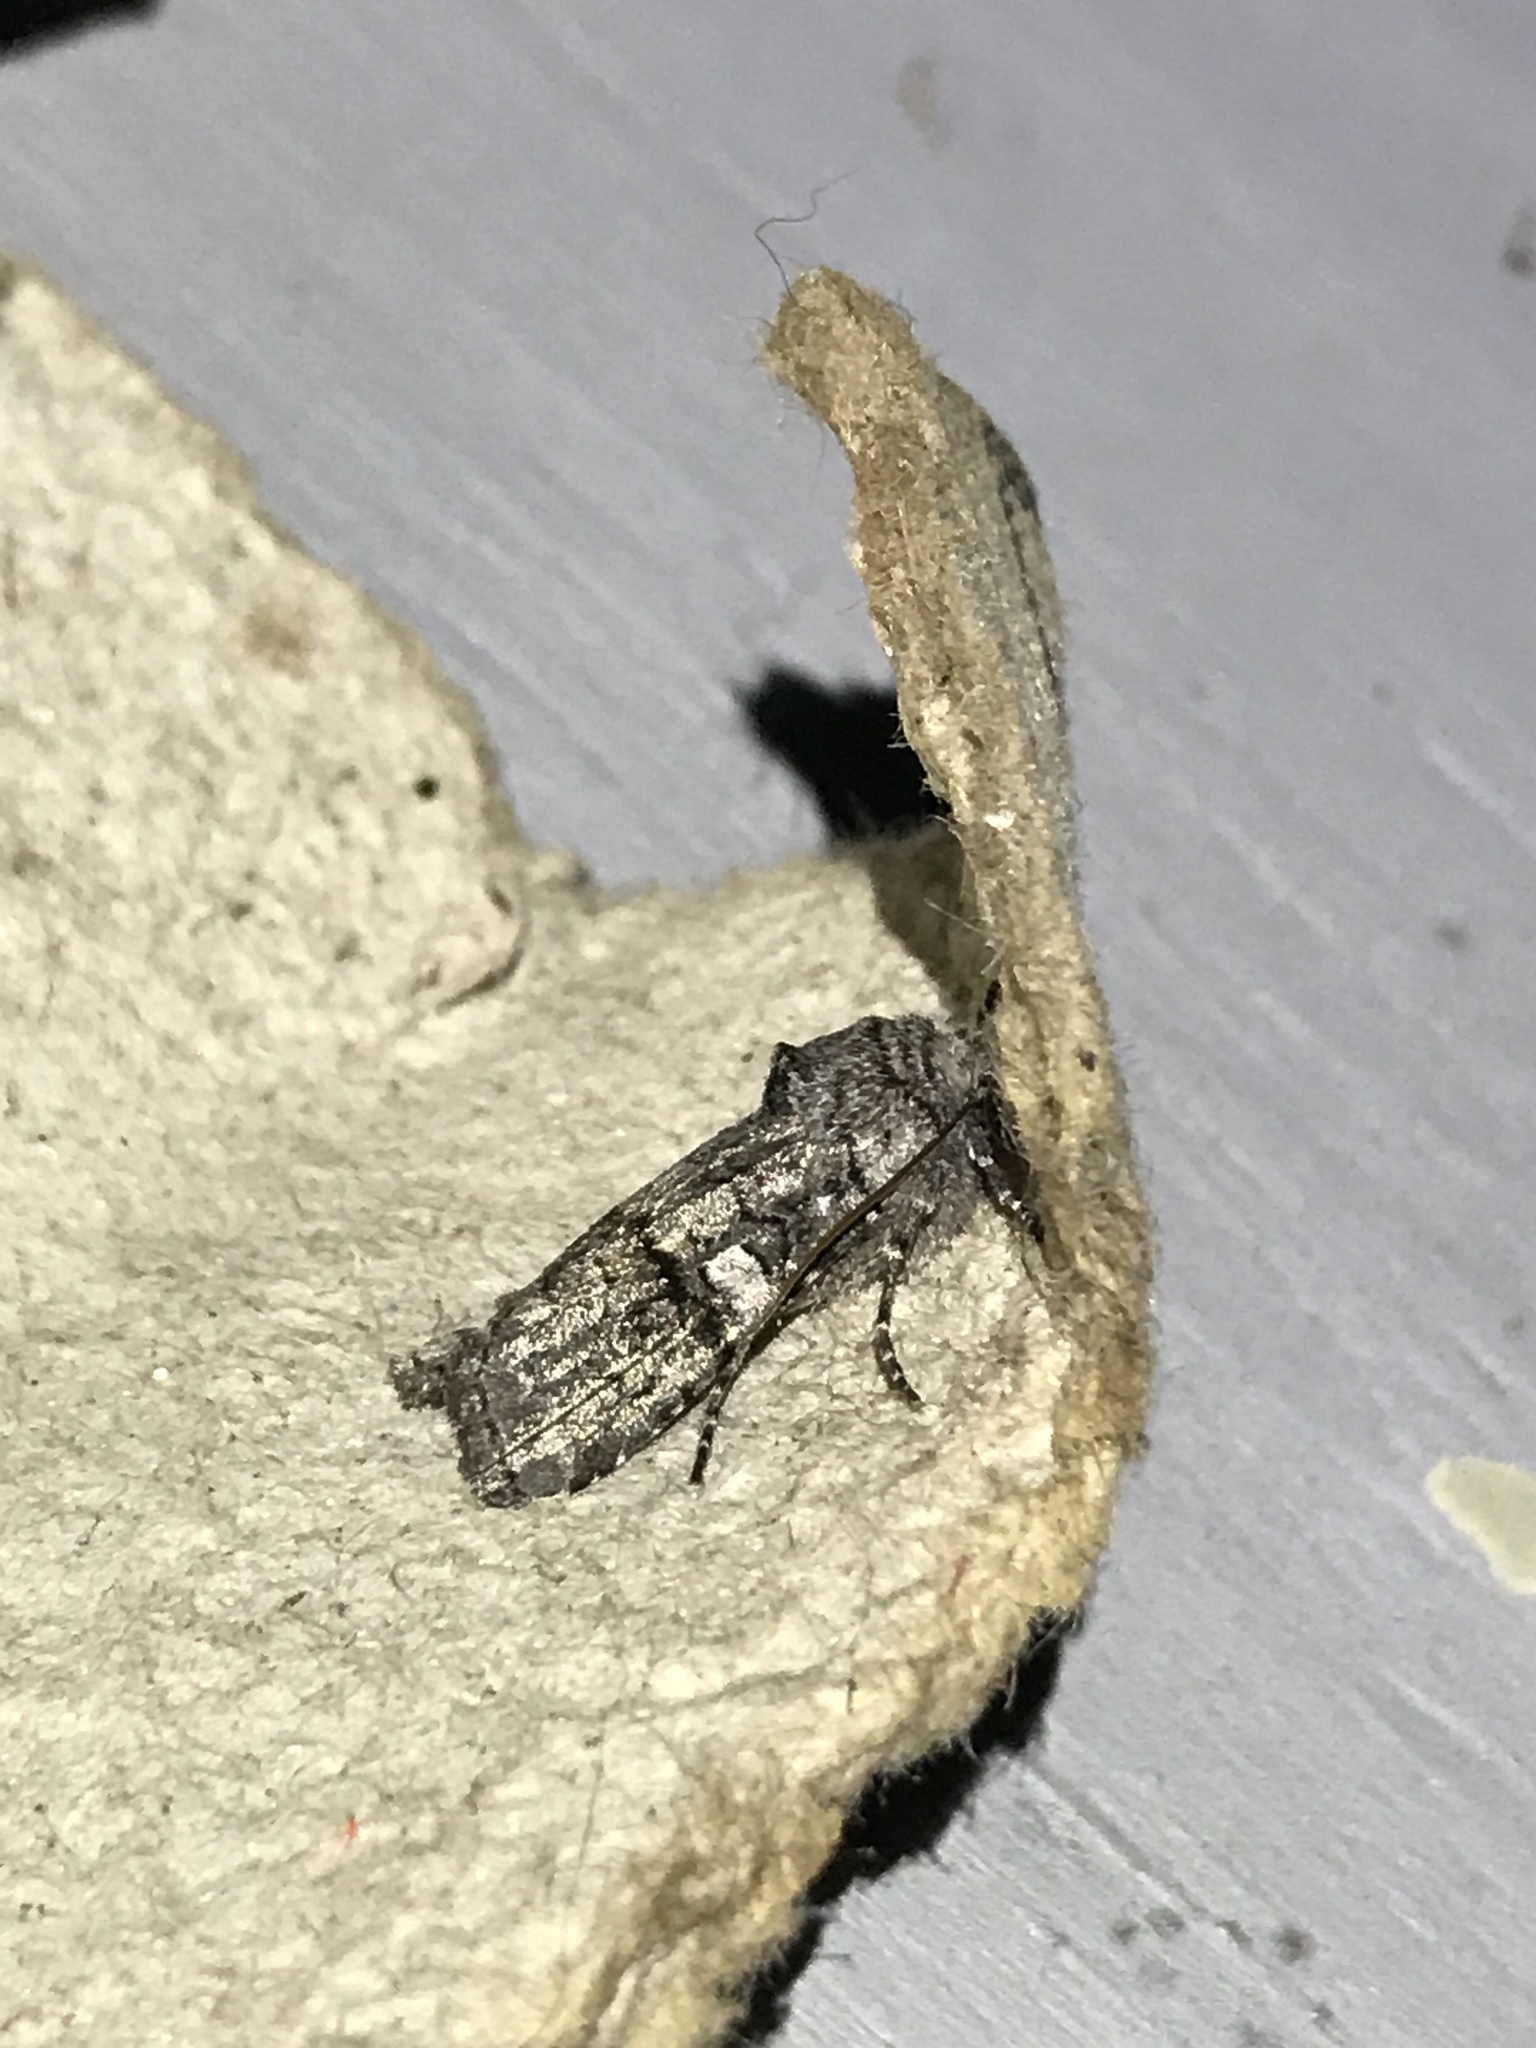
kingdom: Animalia
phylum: Arthropoda
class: Insecta
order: Lepidoptera
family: Noctuidae
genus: Litholomia
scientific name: Litholomia napaea
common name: False pinion moth
